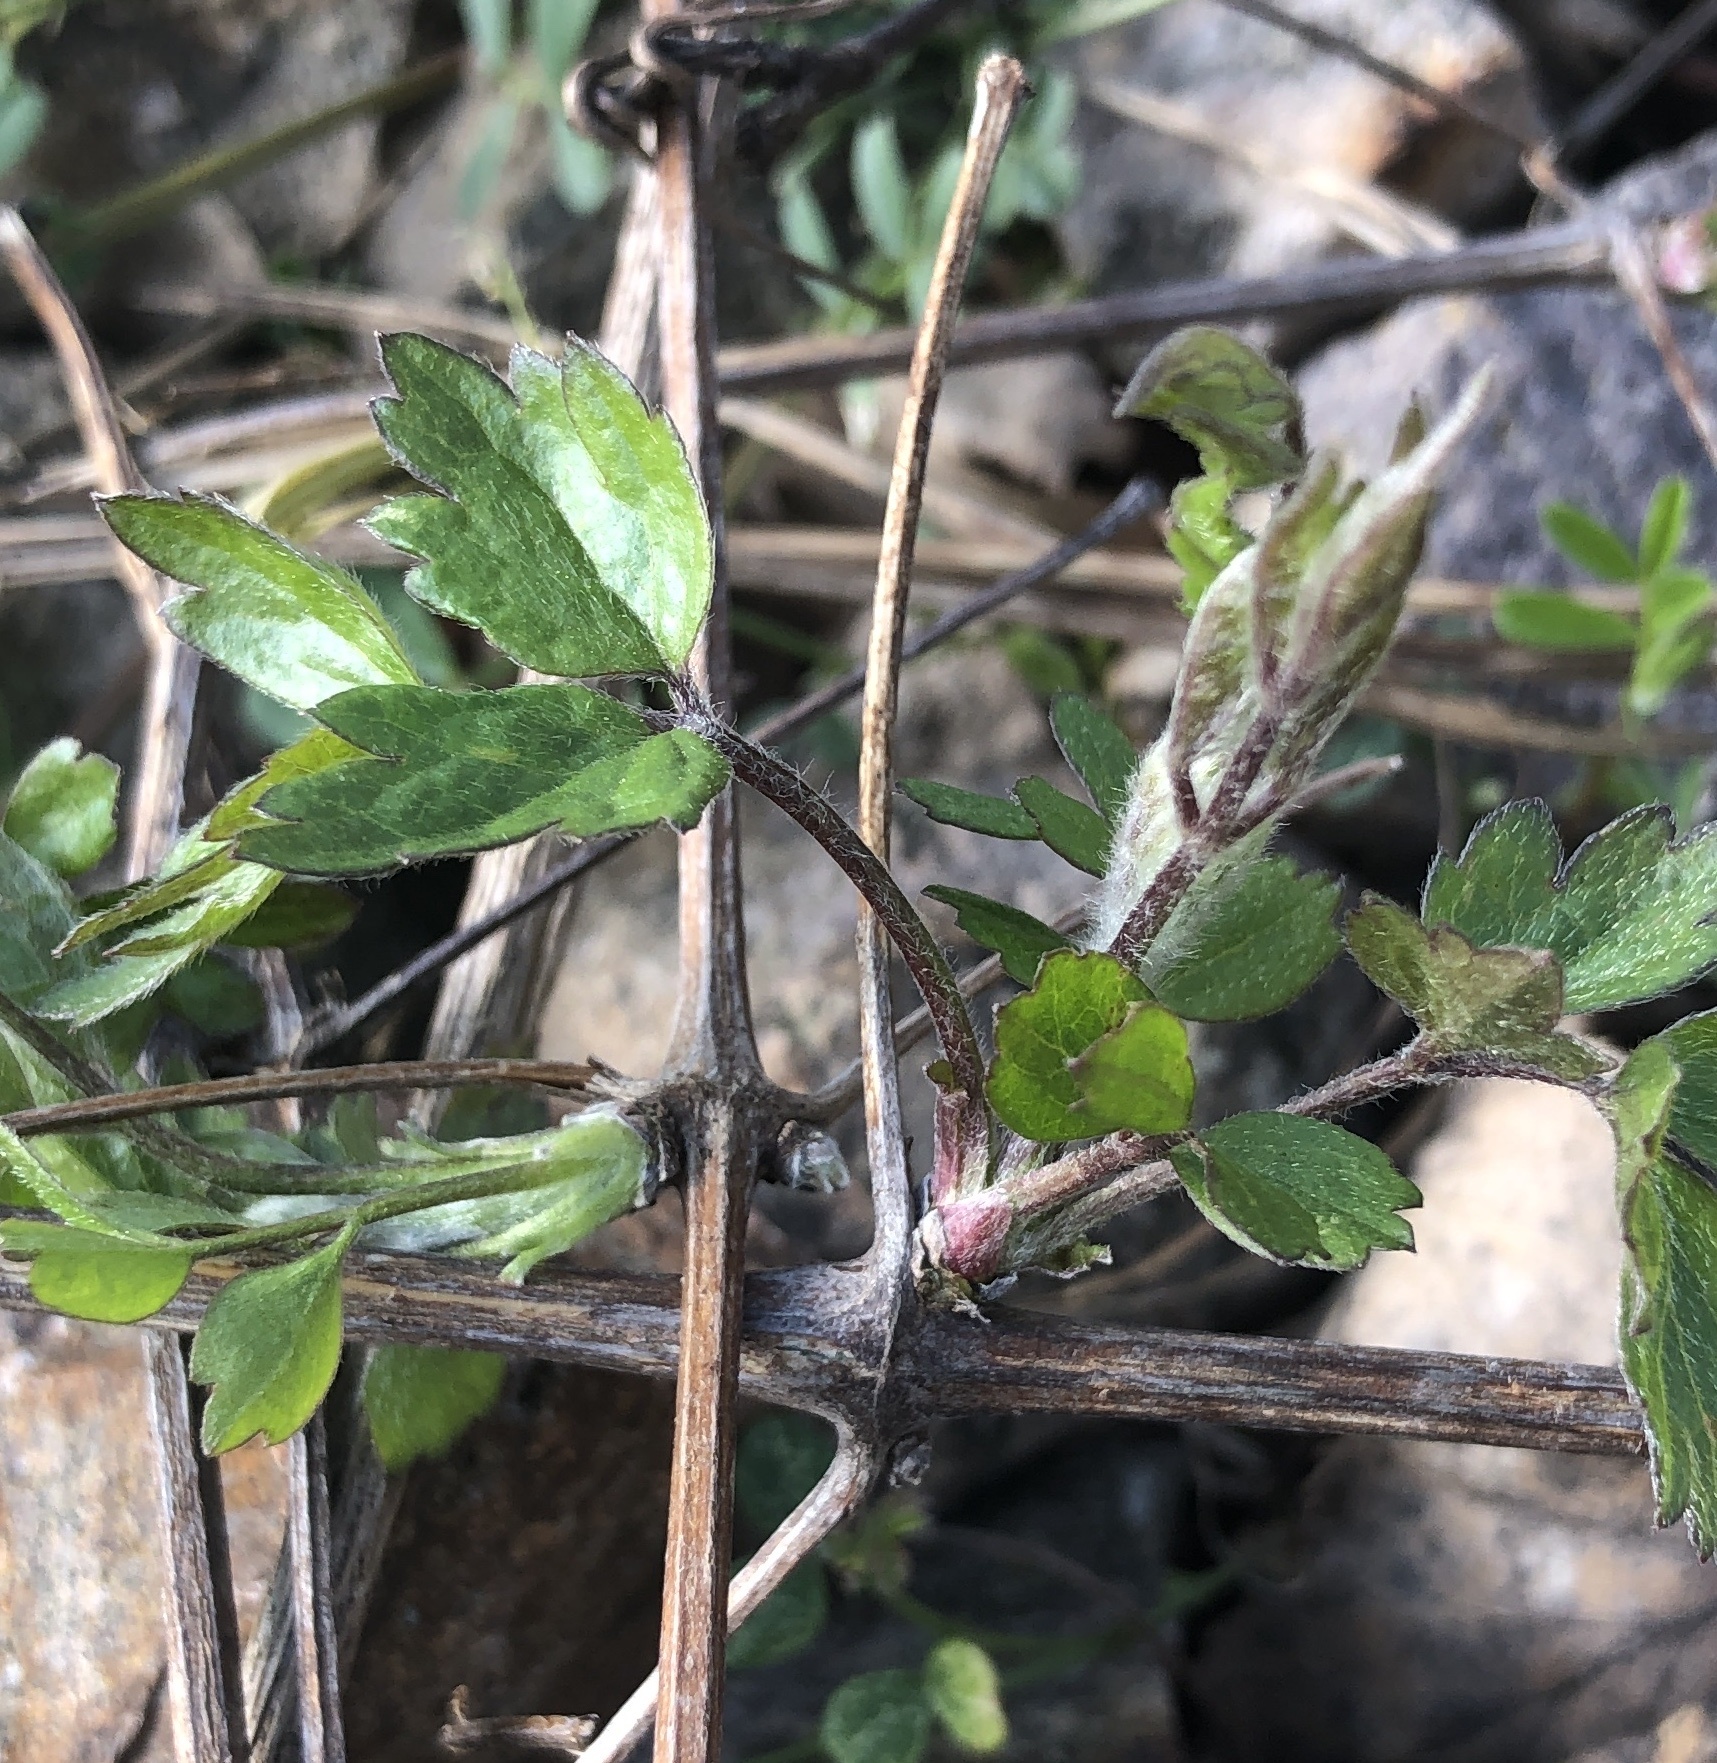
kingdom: Plantae
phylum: Tracheophyta
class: Magnoliopsida
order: Ranunculales
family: Ranunculaceae
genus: Clematis
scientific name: Clematis vitalba
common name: Evergreen clematis
